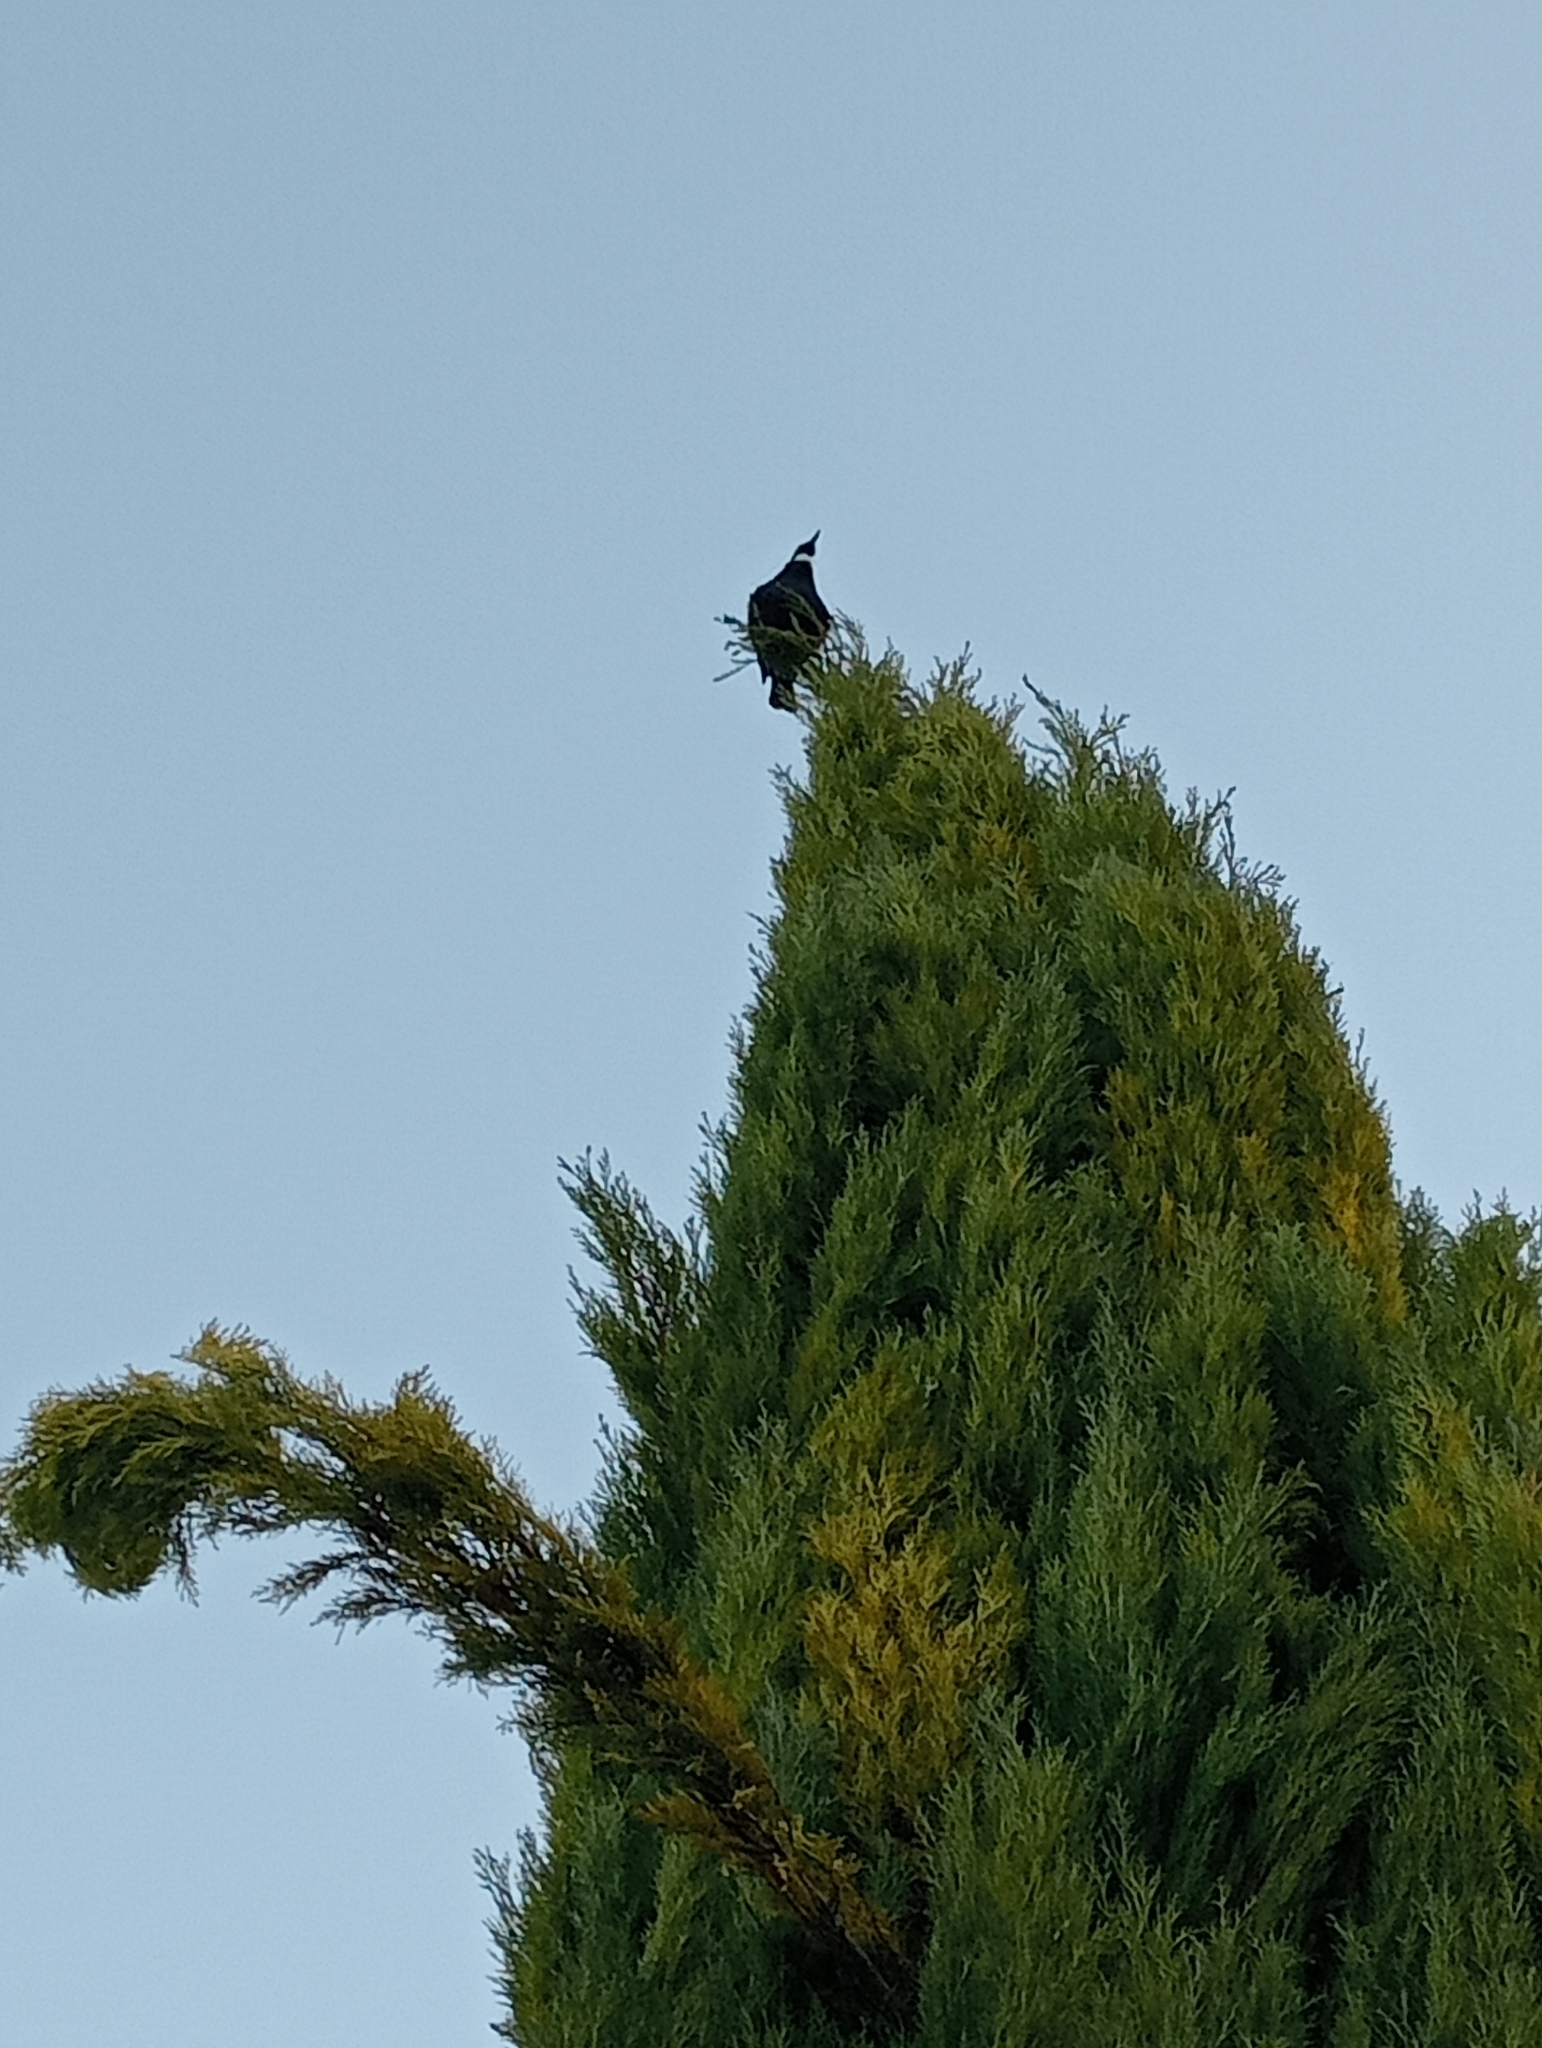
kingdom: Animalia
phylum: Chordata
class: Aves
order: Passeriformes
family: Meliphagidae
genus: Prosthemadera
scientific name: Prosthemadera novaeseelandiae
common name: Tui
